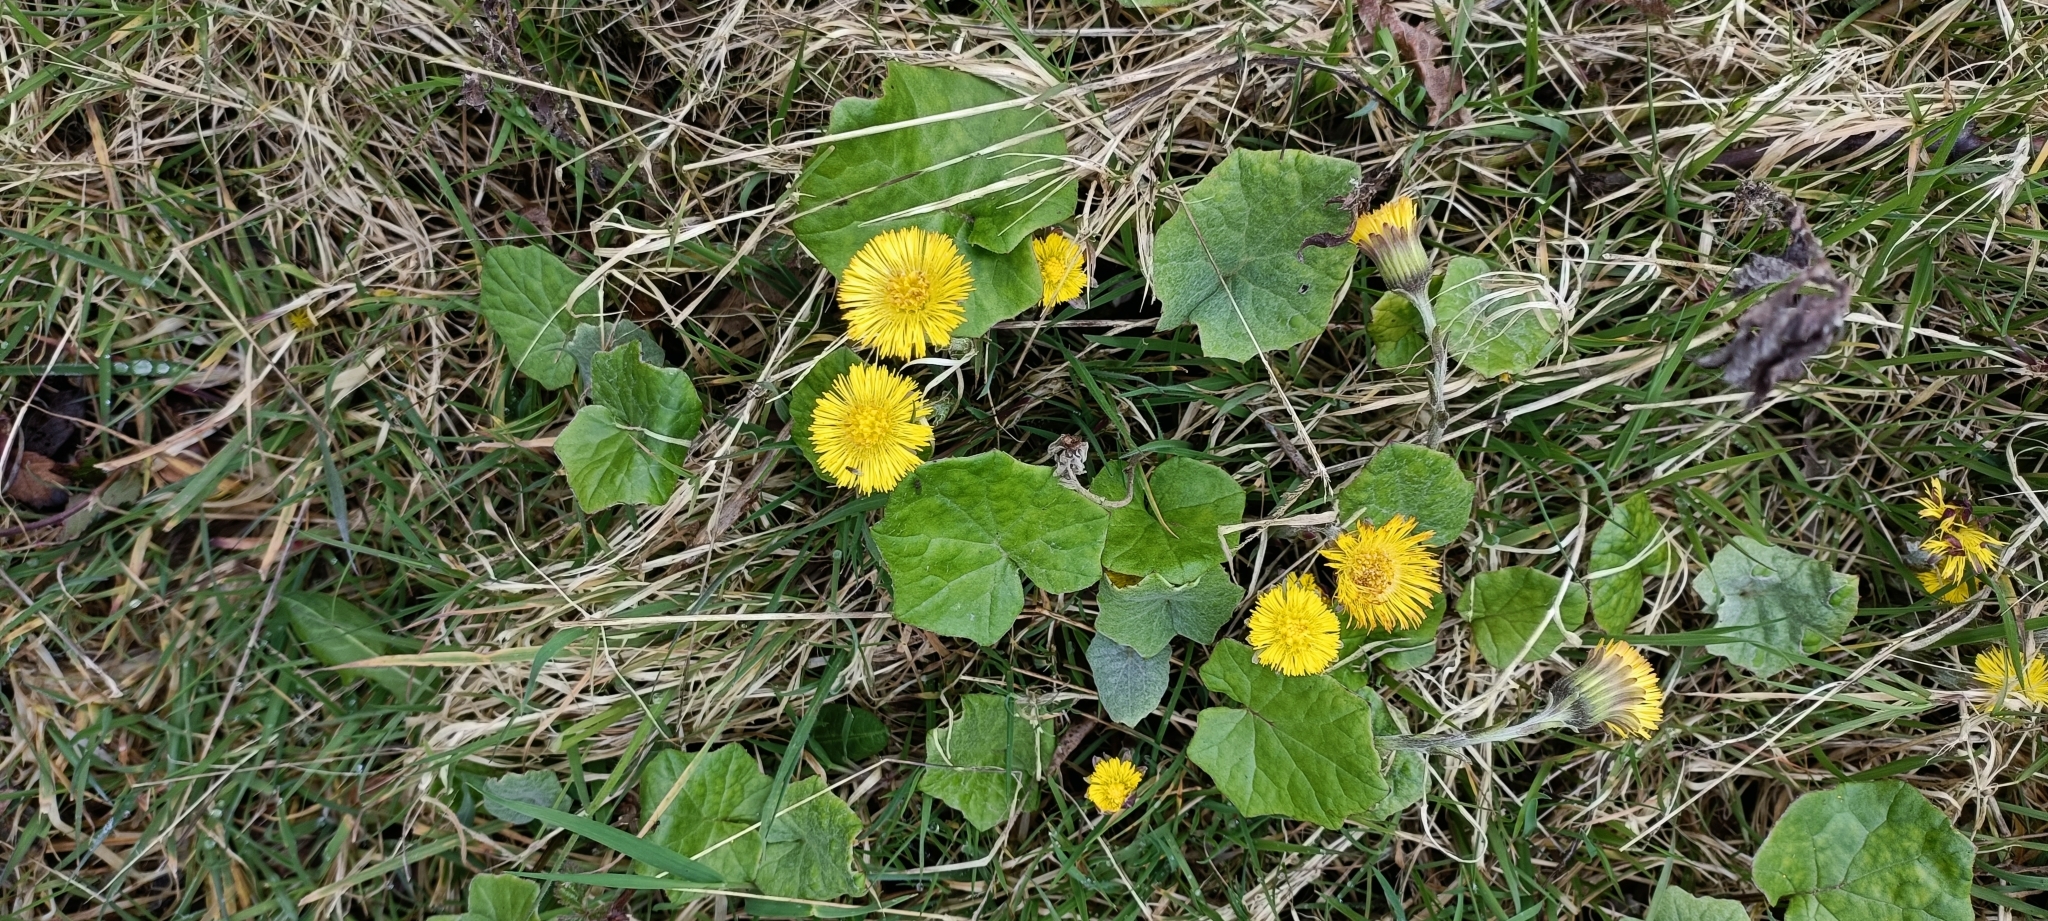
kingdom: Plantae
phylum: Tracheophyta
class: Magnoliopsida
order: Asterales
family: Asteraceae
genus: Tussilago
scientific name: Tussilago farfara
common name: Coltsfoot
